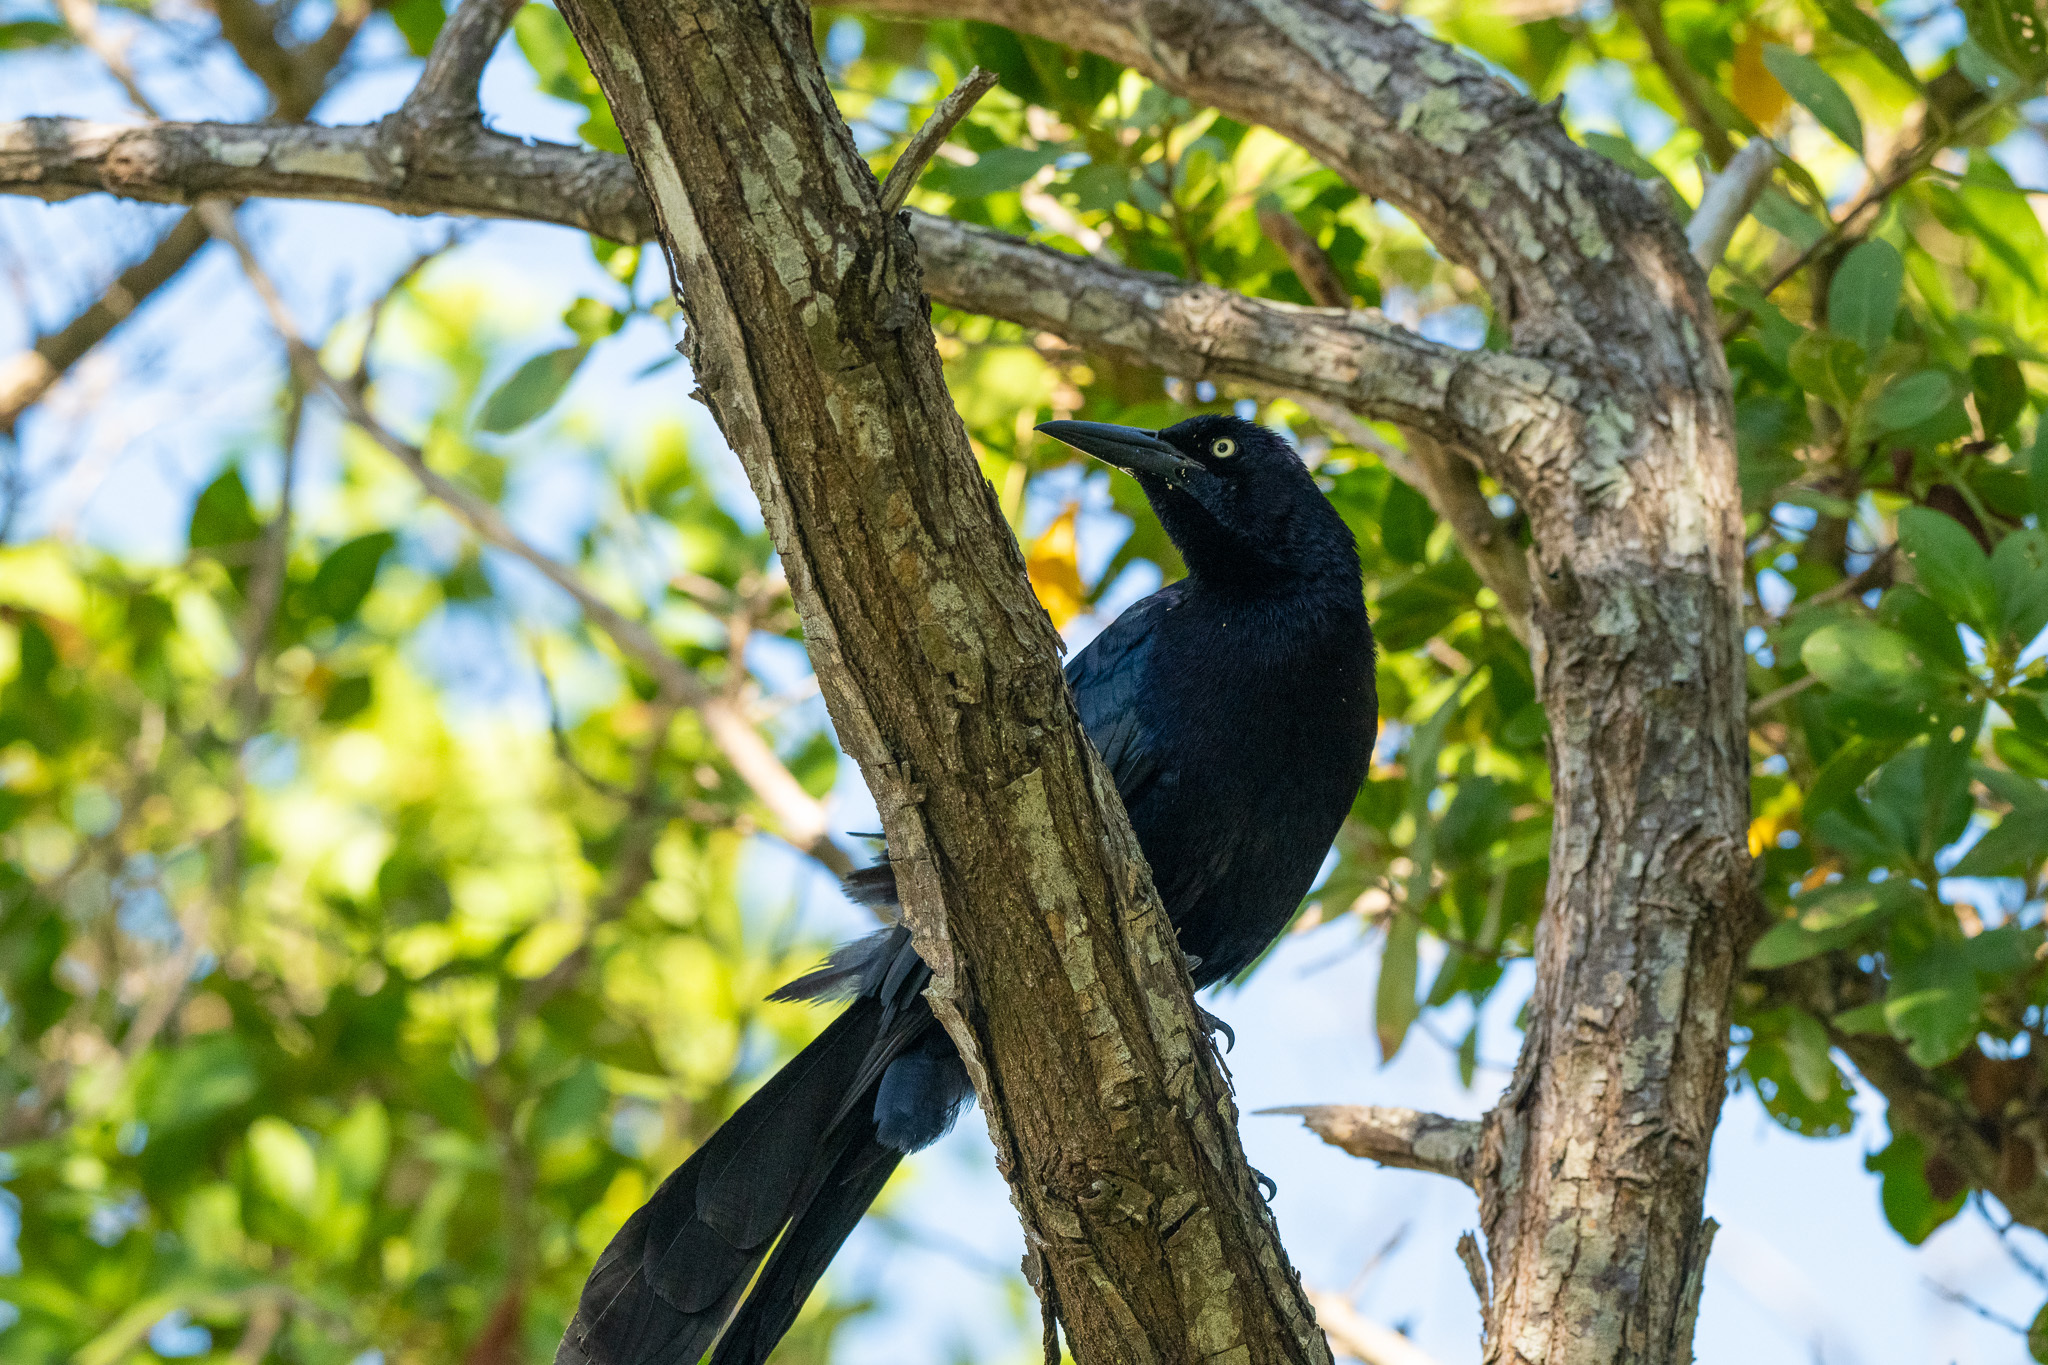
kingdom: Animalia
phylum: Chordata
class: Aves
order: Passeriformes
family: Icteridae
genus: Quiscalus
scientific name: Quiscalus mexicanus
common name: Great-tailed grackle
